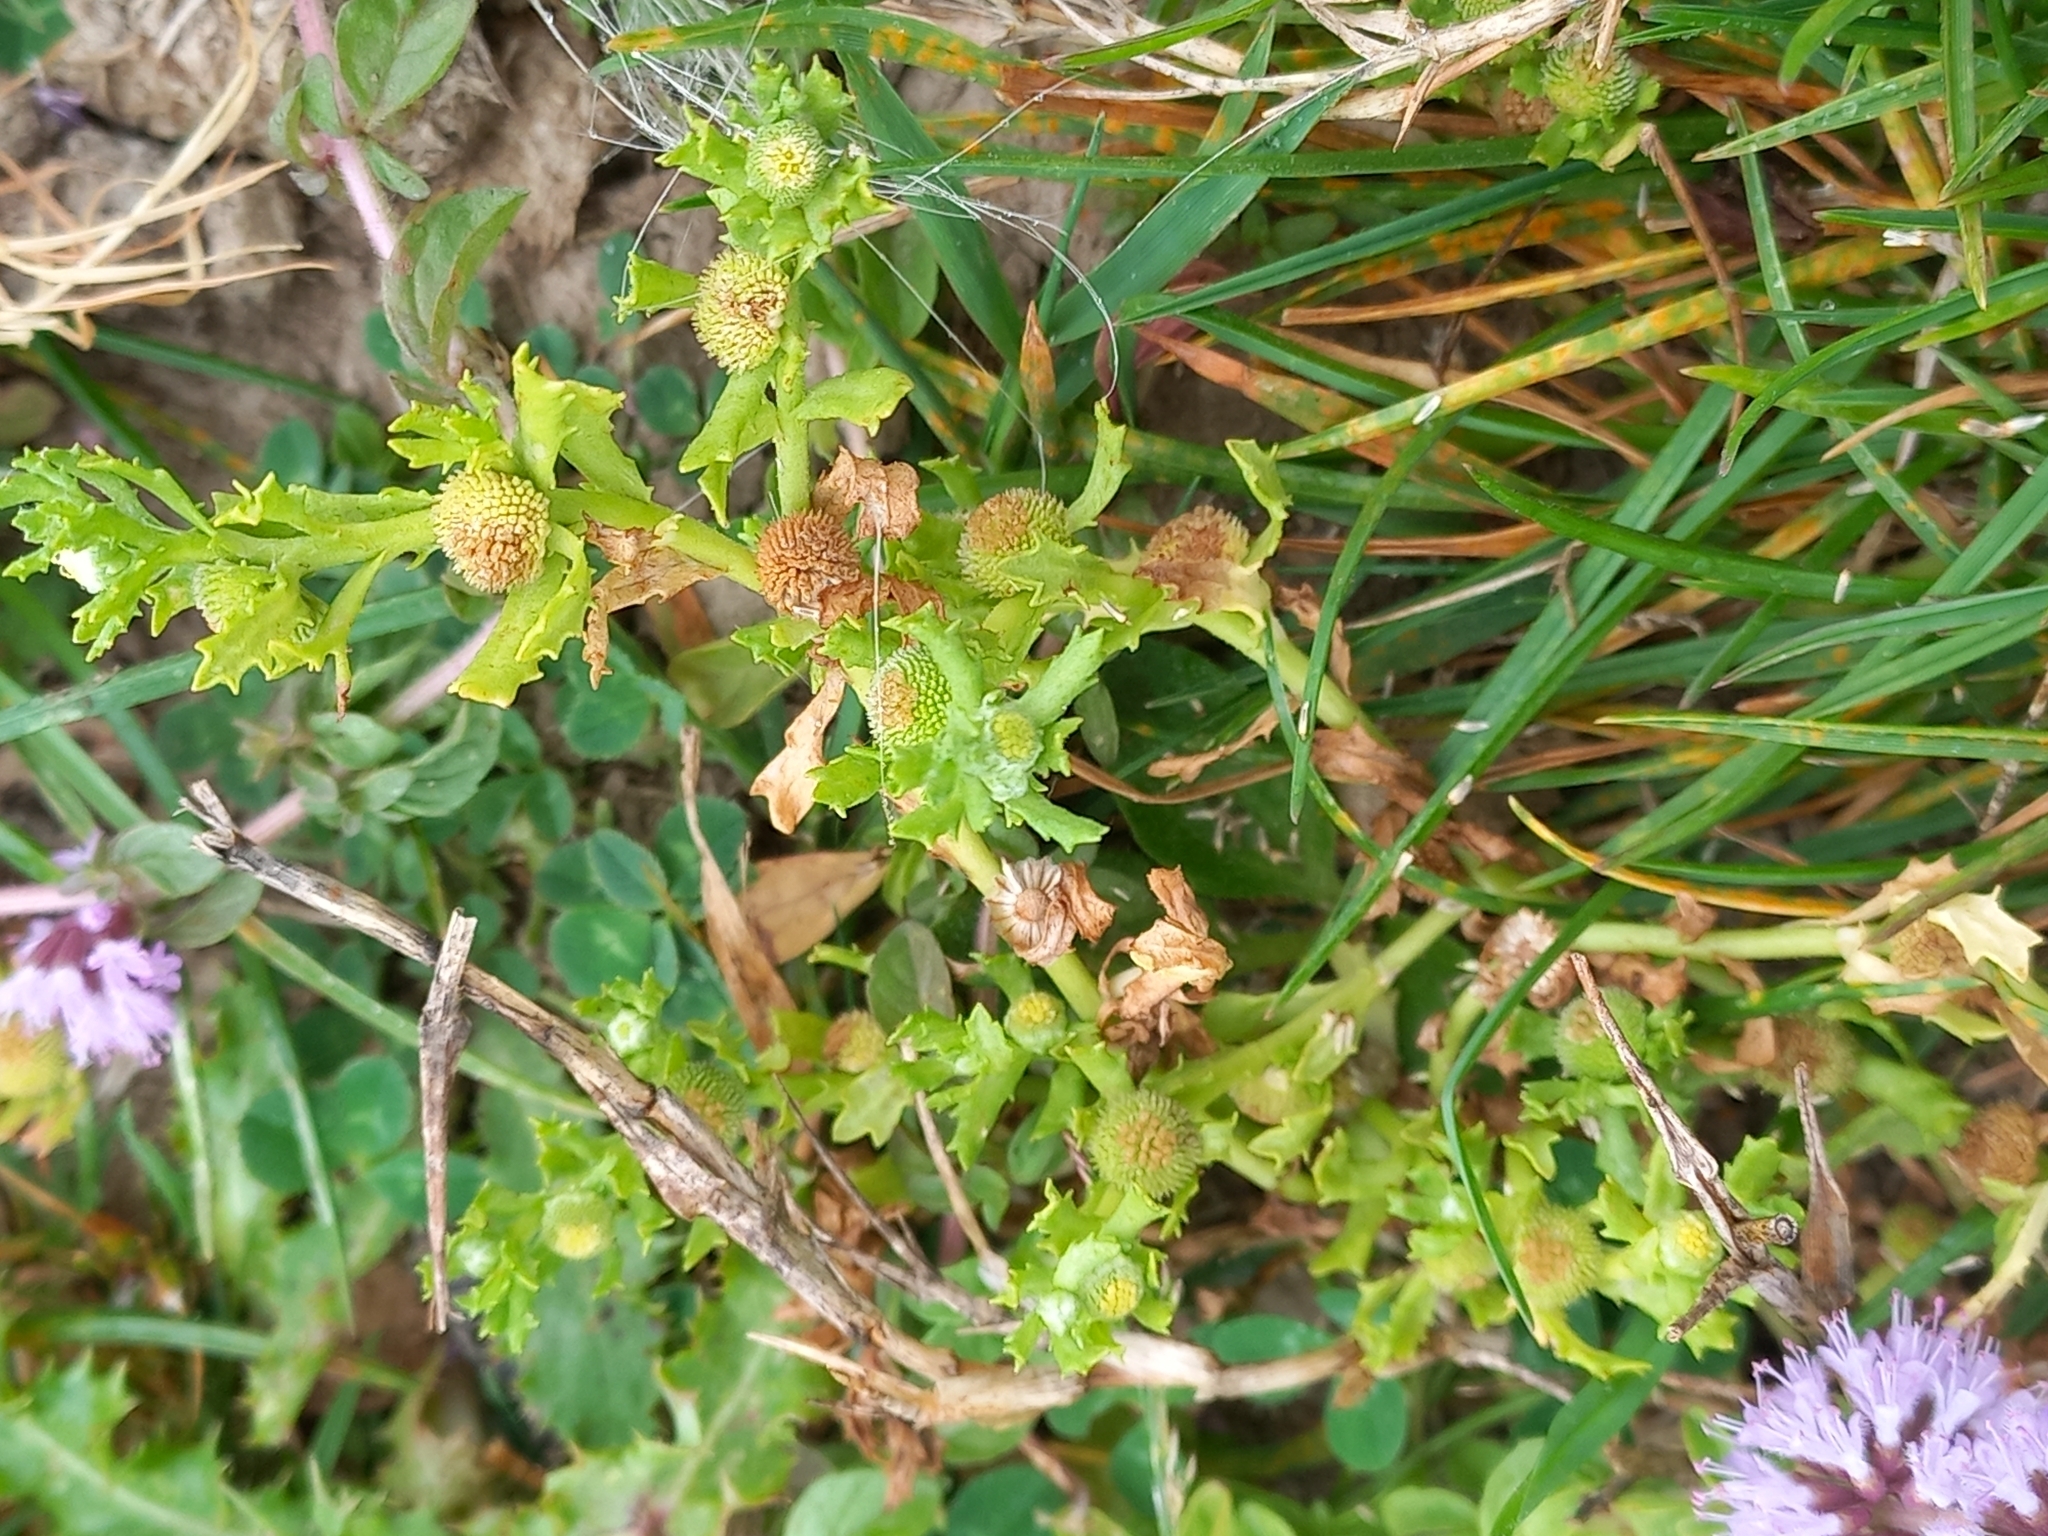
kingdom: Plantae
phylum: Tracheophyta
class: Magnoliopsida
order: Asterales
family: Asteraceae
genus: Centipeda
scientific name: Centipeda cunninghamii
